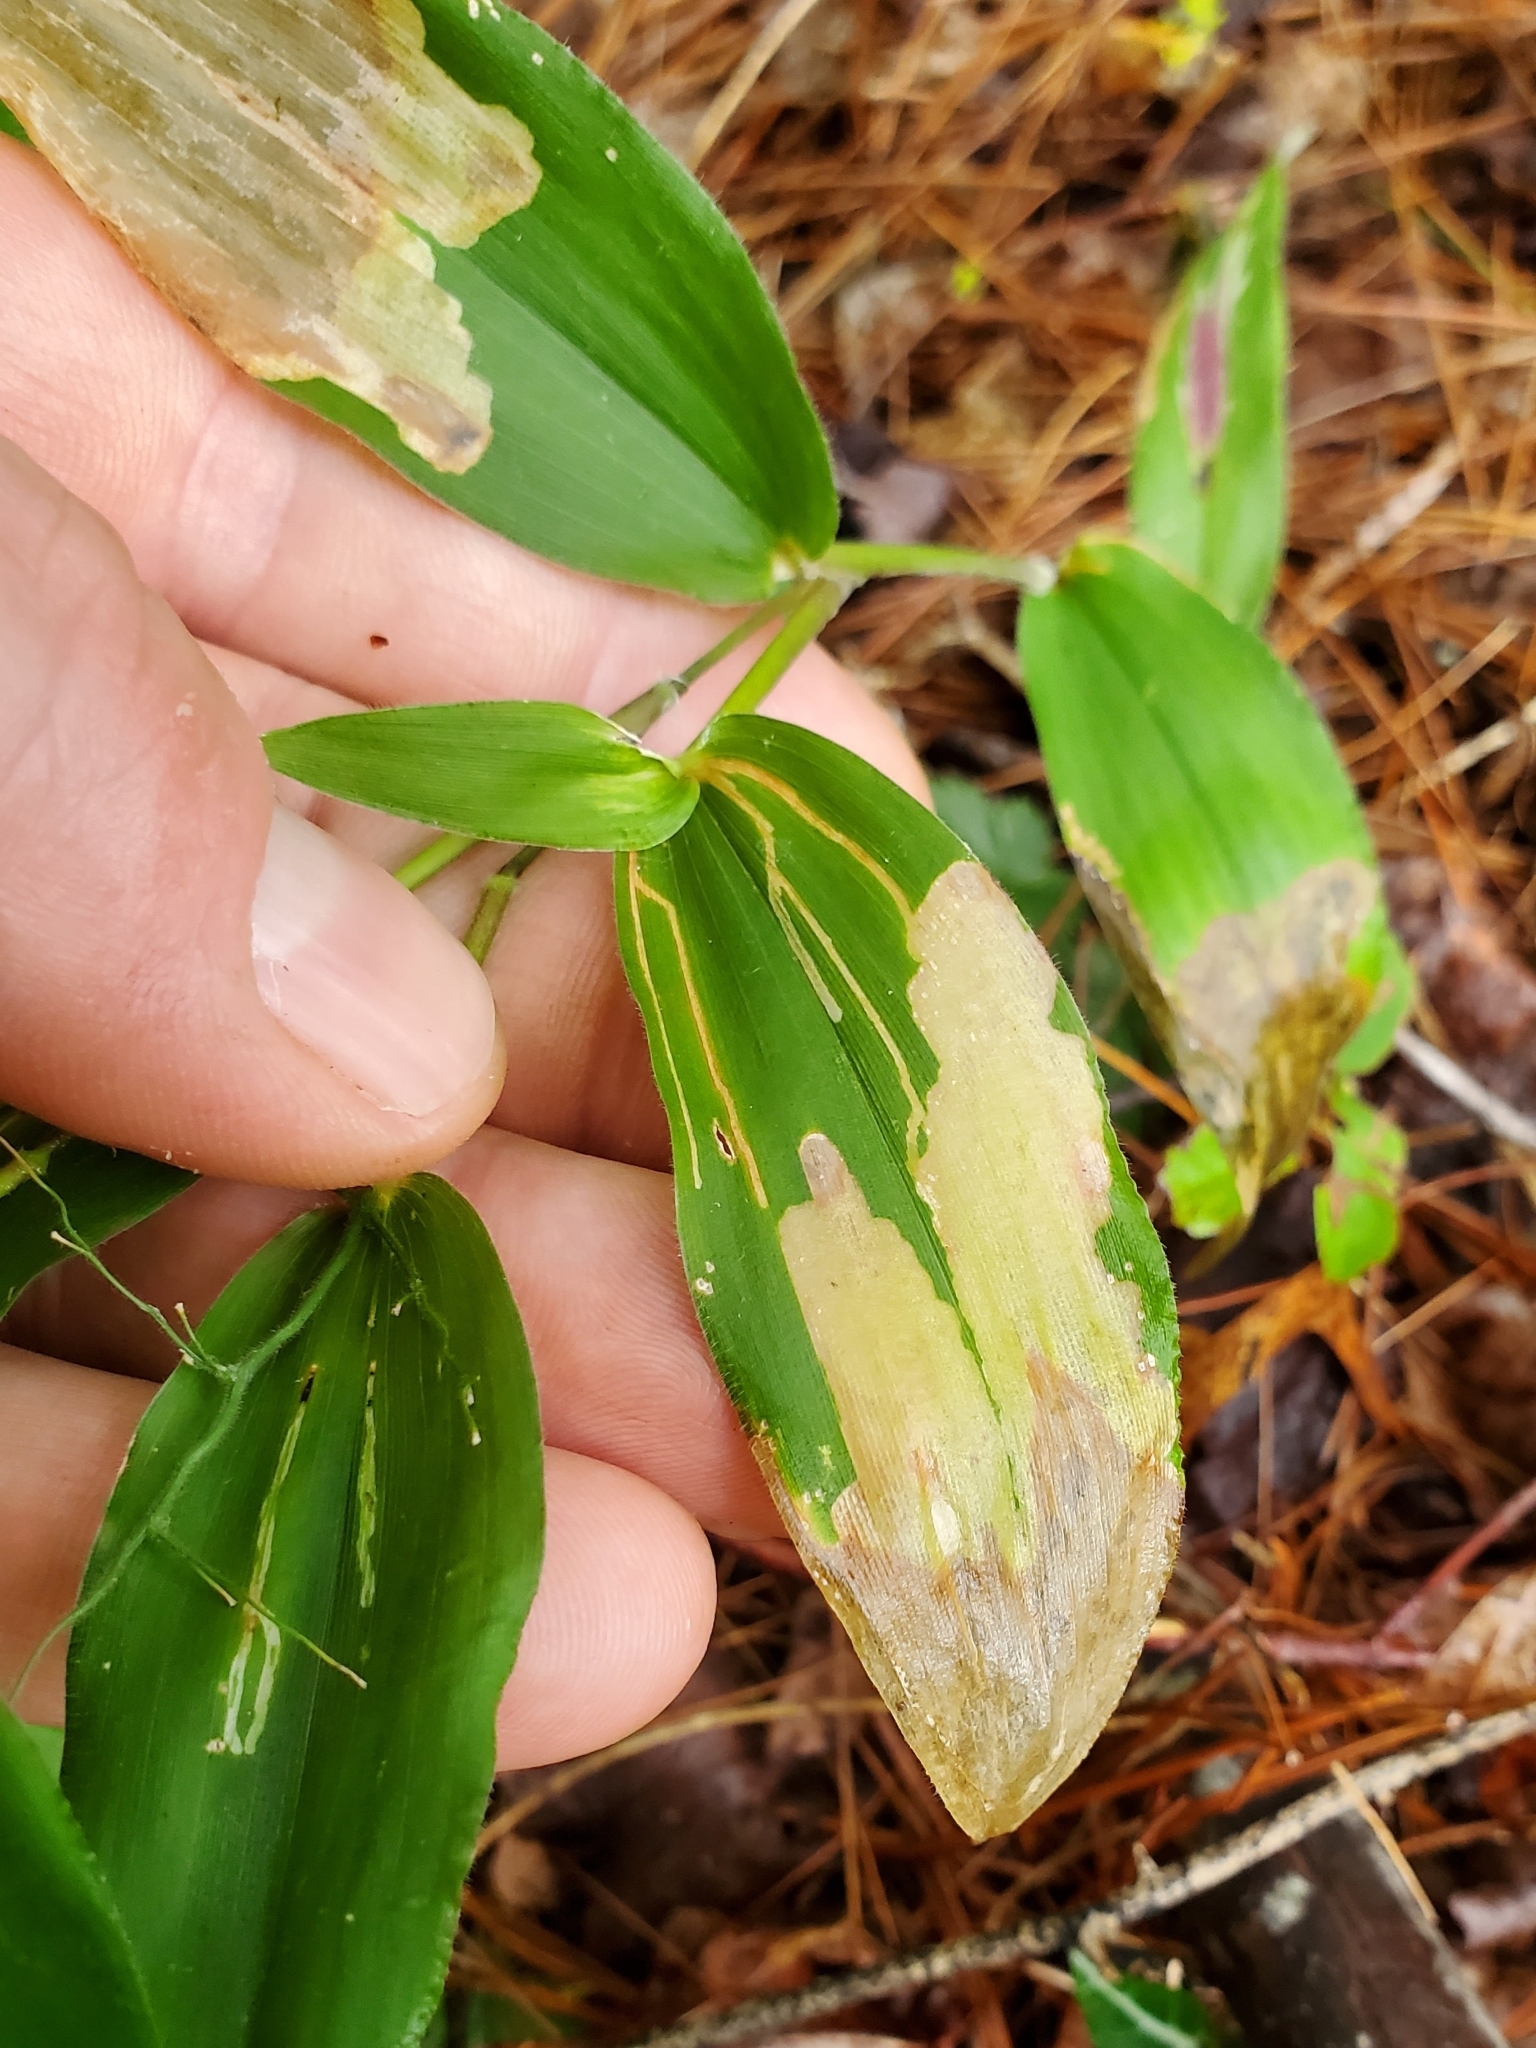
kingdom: Animalia
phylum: Arthropoda
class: Insecta
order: Diptera
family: Agromyzidae
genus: Cerodontha
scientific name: Cerodontha dorsalis
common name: Grass sheathminer fly
